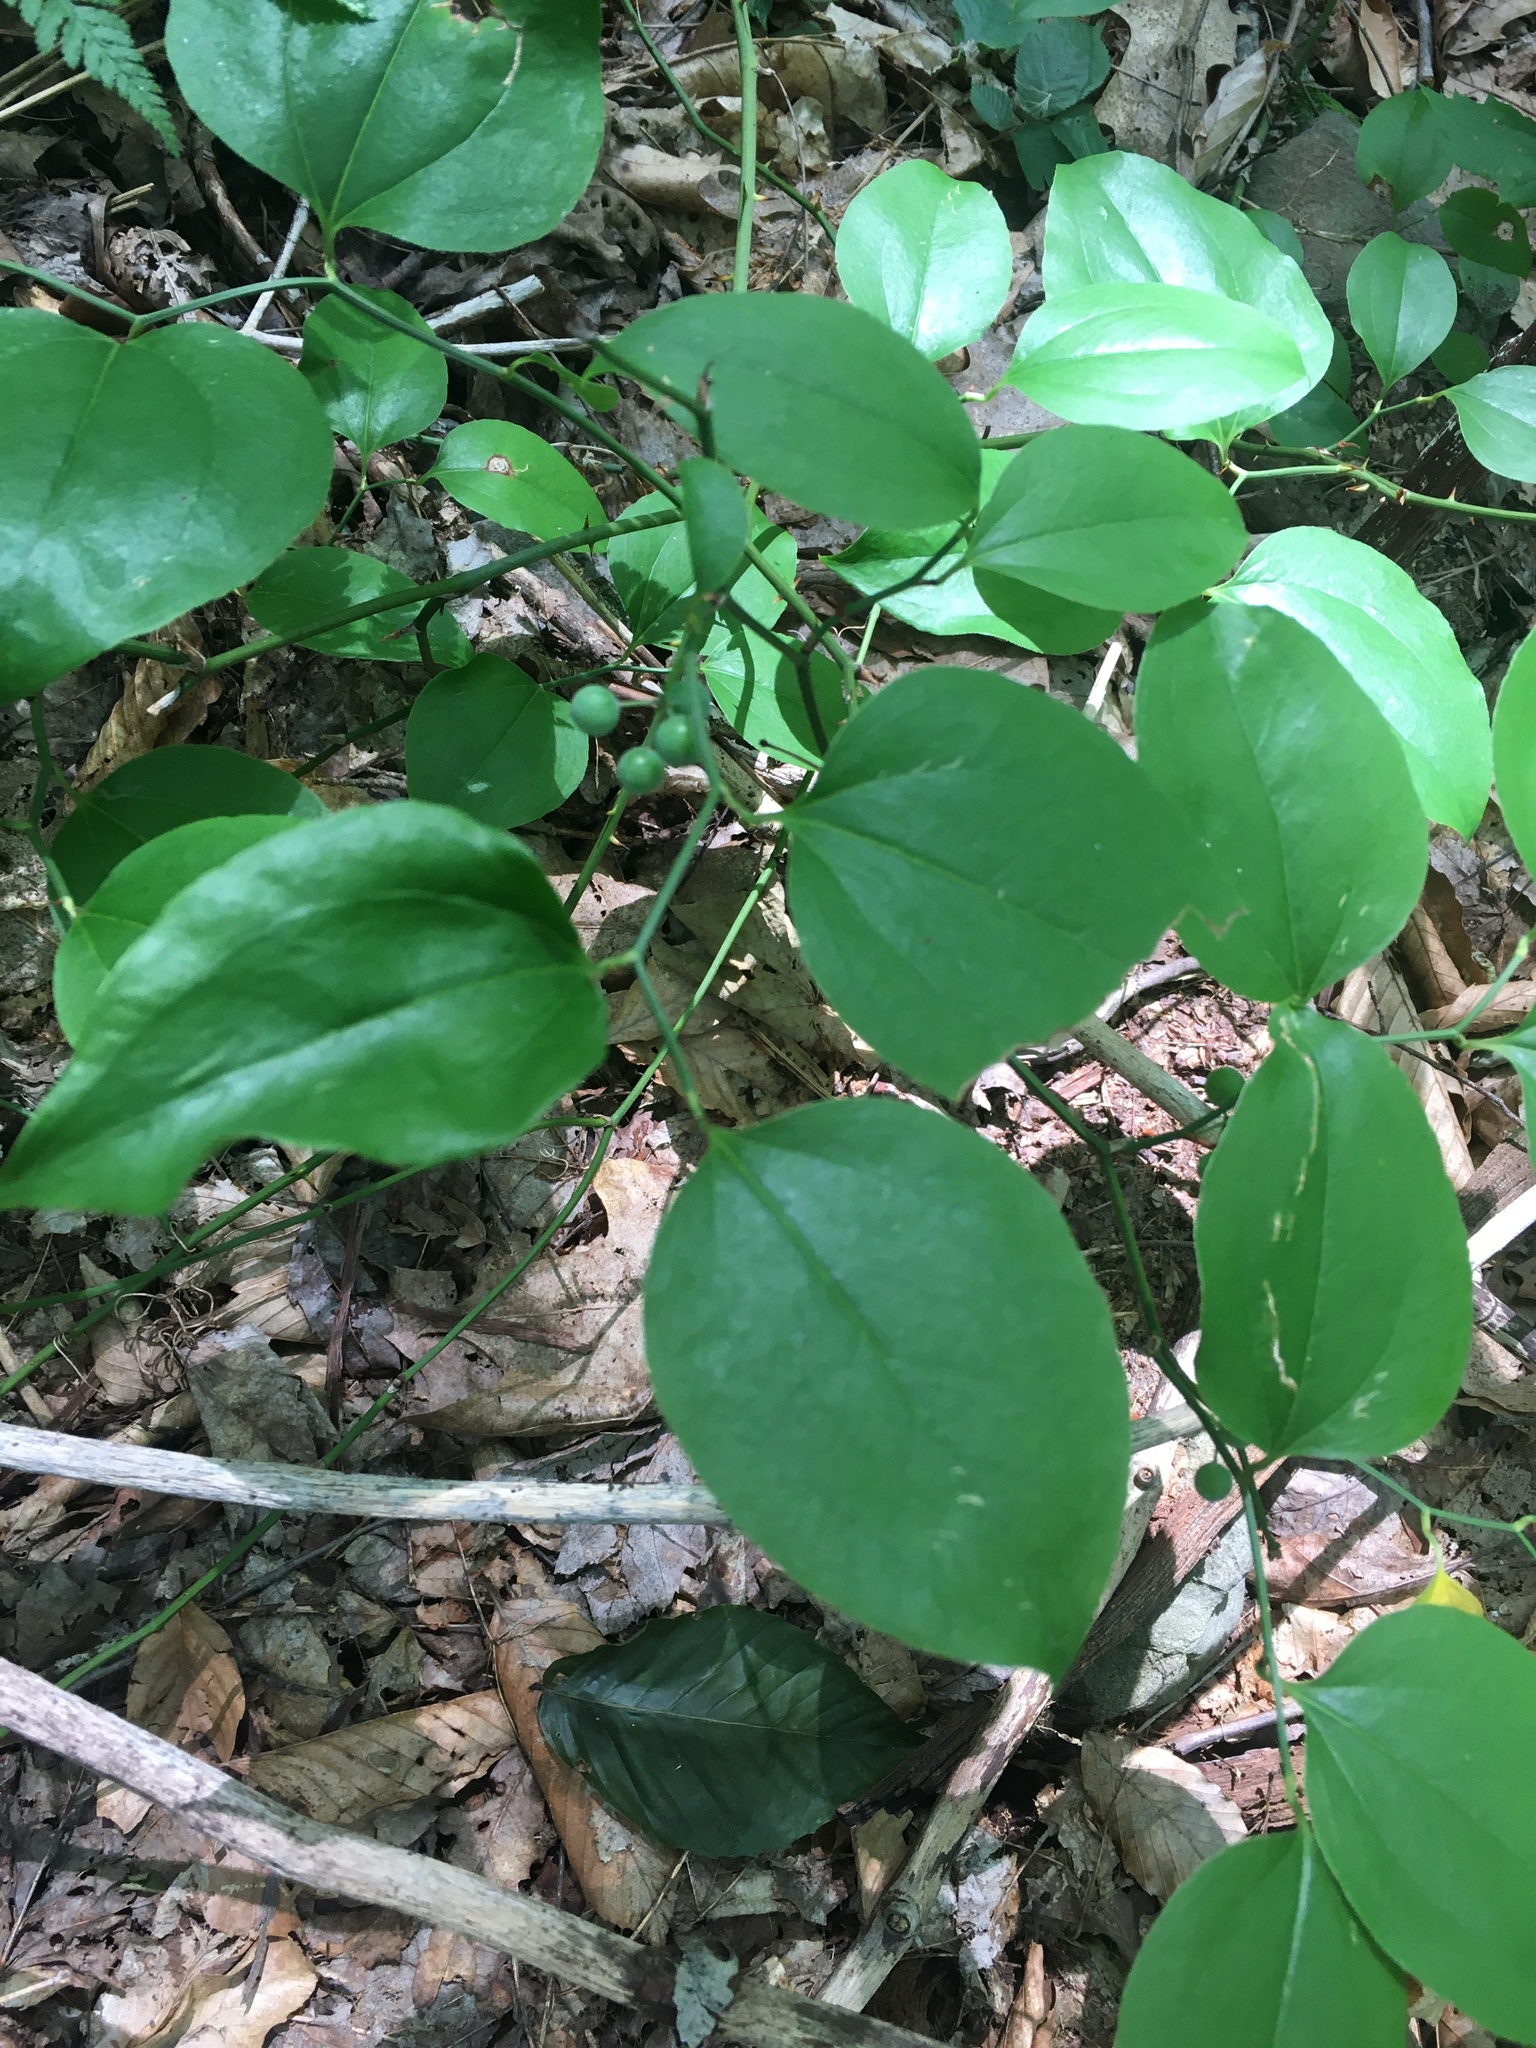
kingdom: Plantae
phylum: Tracheophyta
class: Liliopsida
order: Liliales
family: Smilacaceae
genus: Smilax
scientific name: Smilax rotundifolia
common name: Bullbriar
